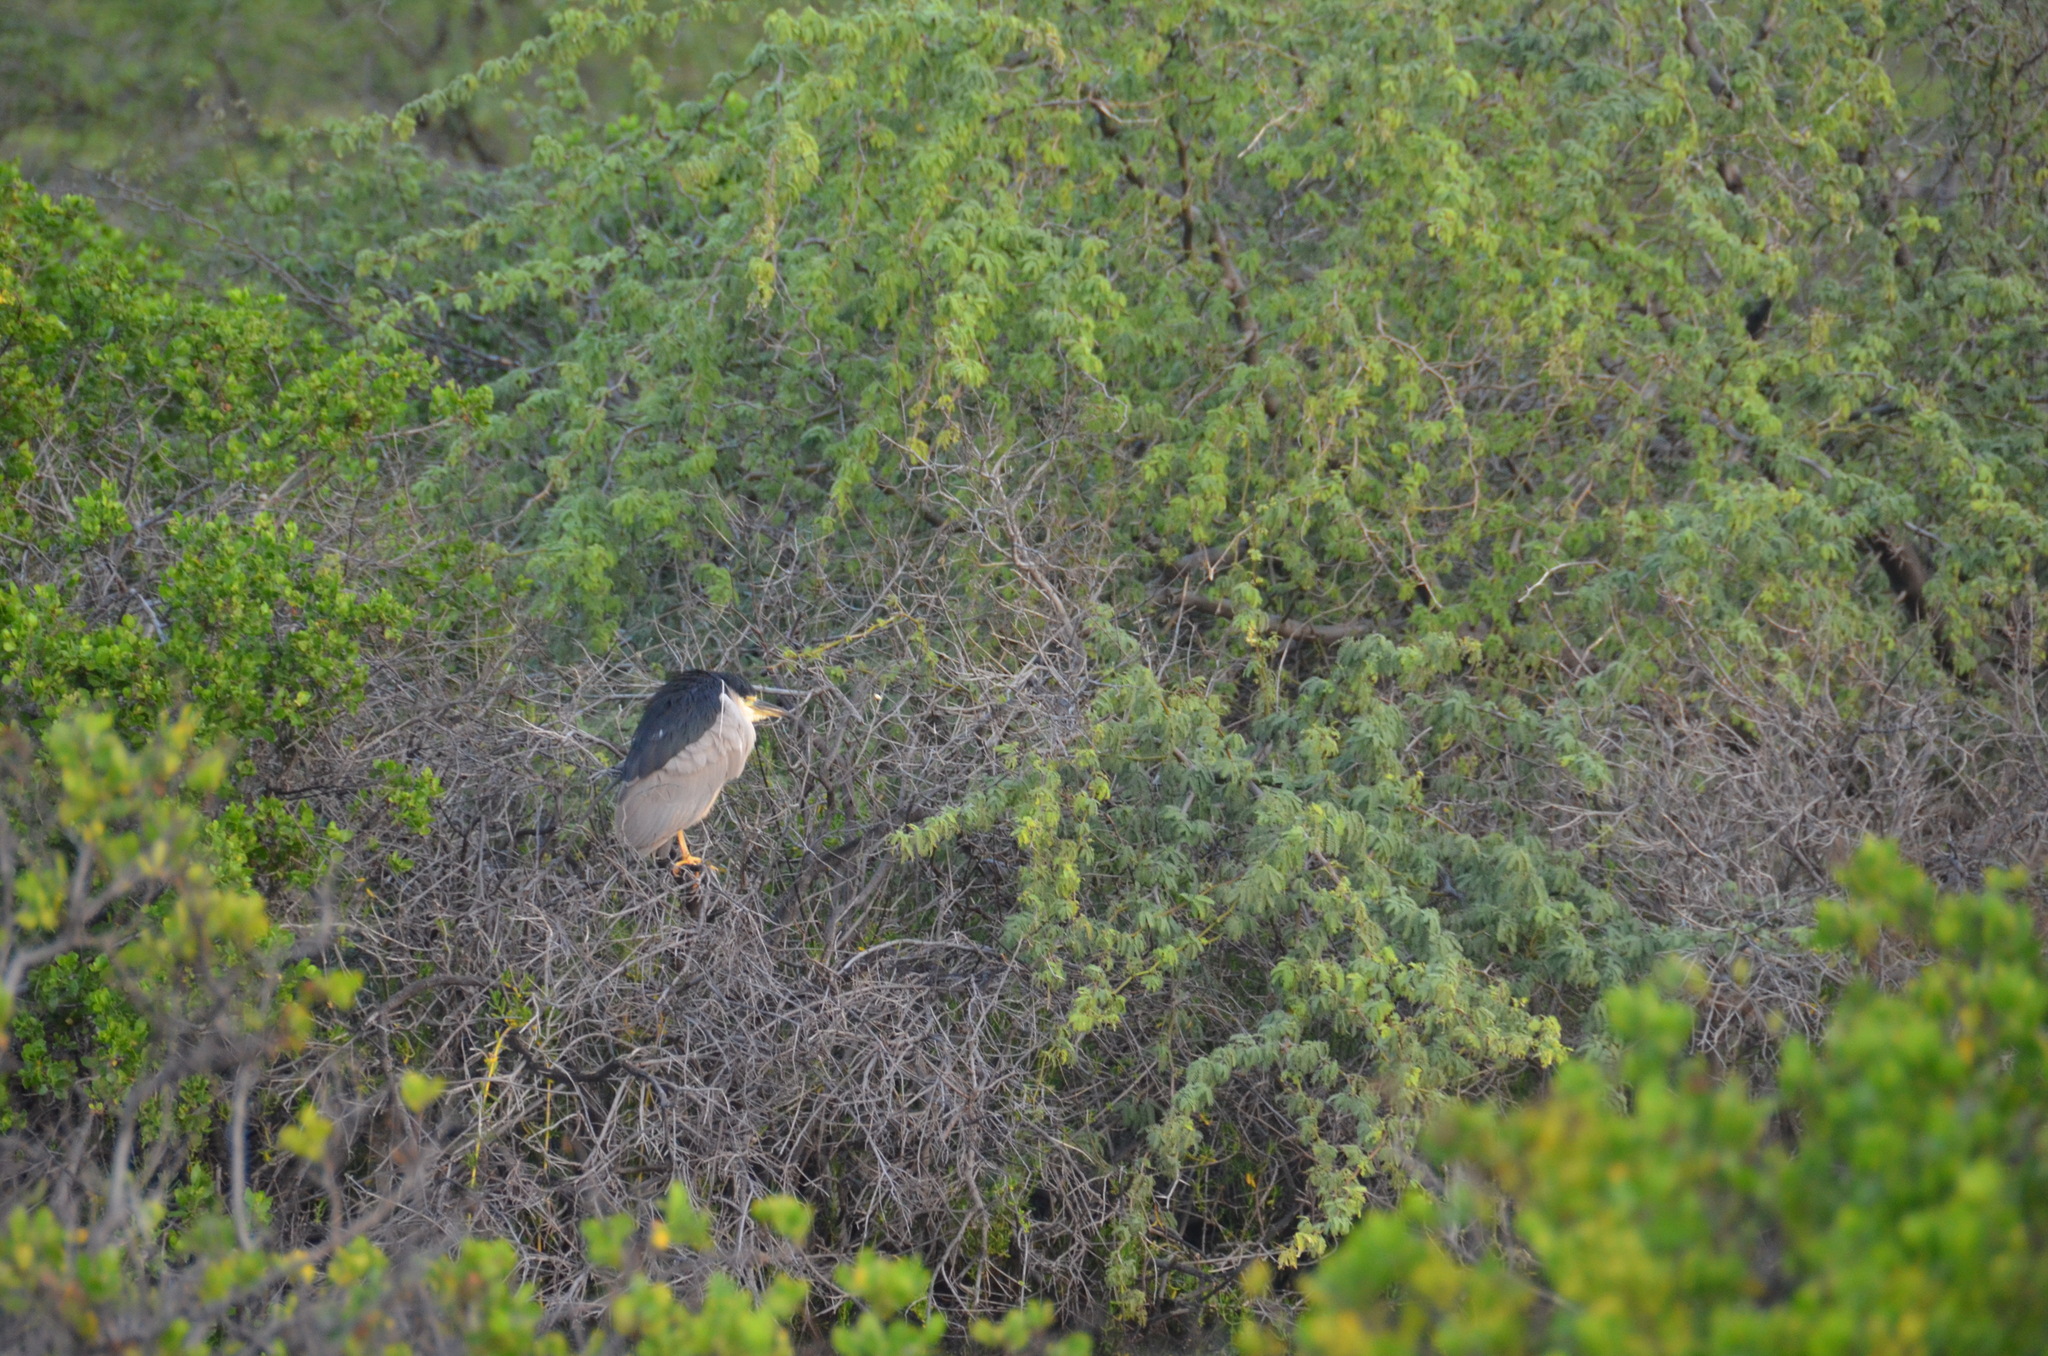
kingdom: Animalia
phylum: Chordata
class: Aves
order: Pelecaniformes
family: Ardeidae
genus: Nycticorax
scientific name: Nycticorax nycticorax
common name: Black-crowned night heron
